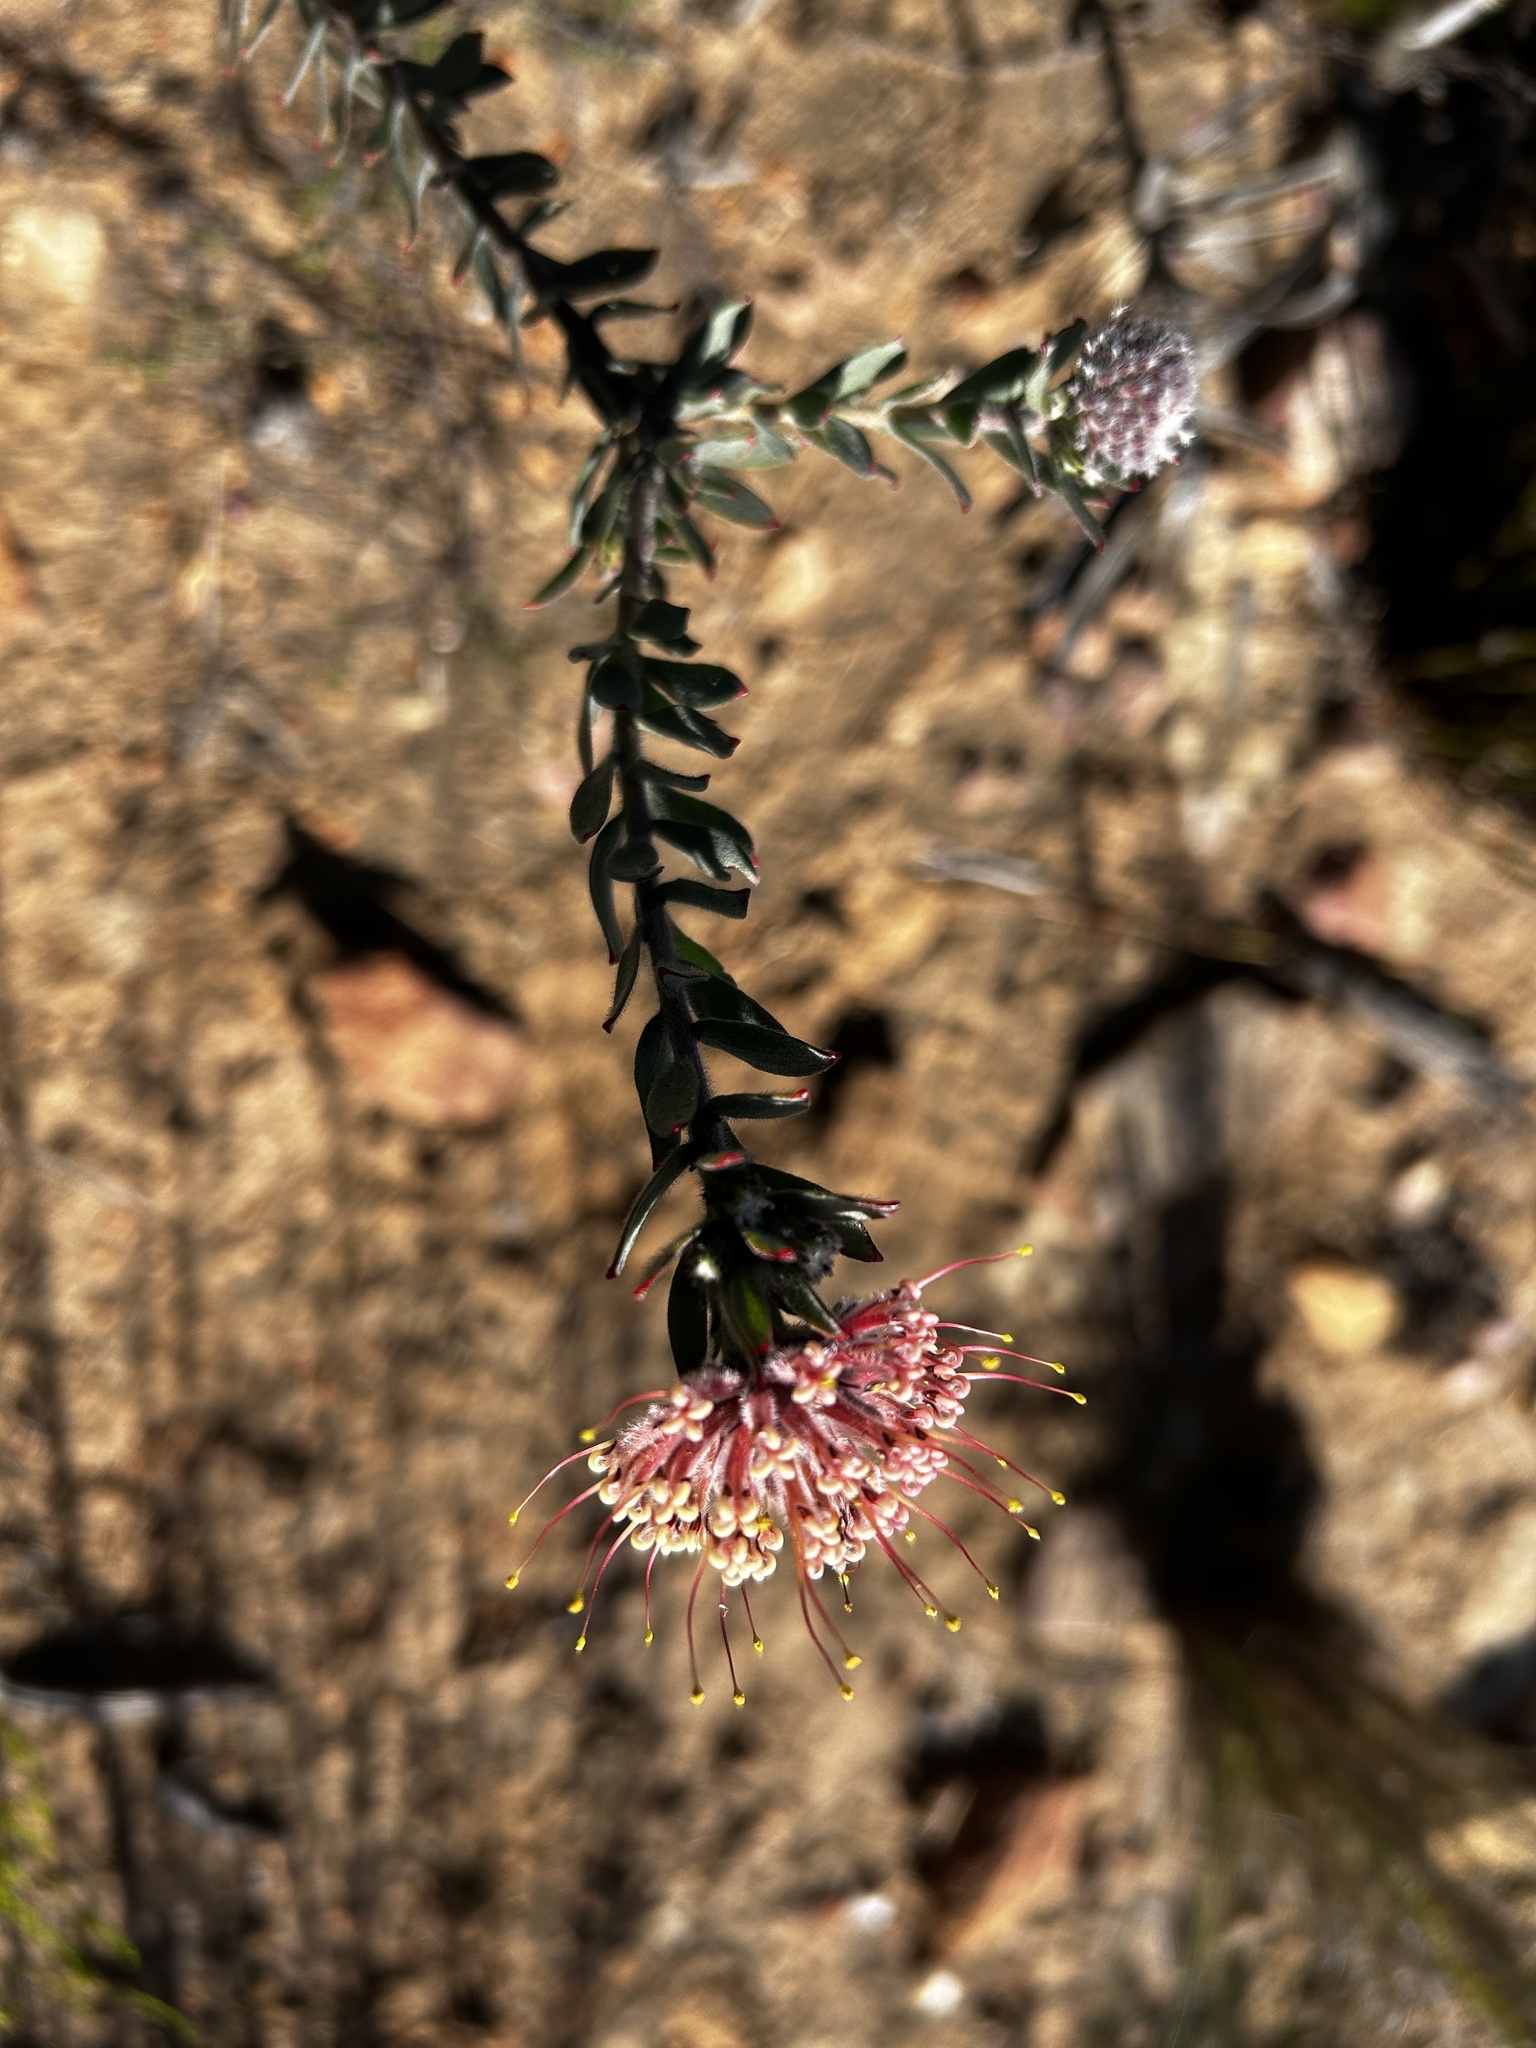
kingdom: Plantae
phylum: Tracheophyta
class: Magnoliopsida
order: Proteales
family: Proteaceae
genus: Leucospermum
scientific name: Leucospermum calligerum
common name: Arid pincushion
